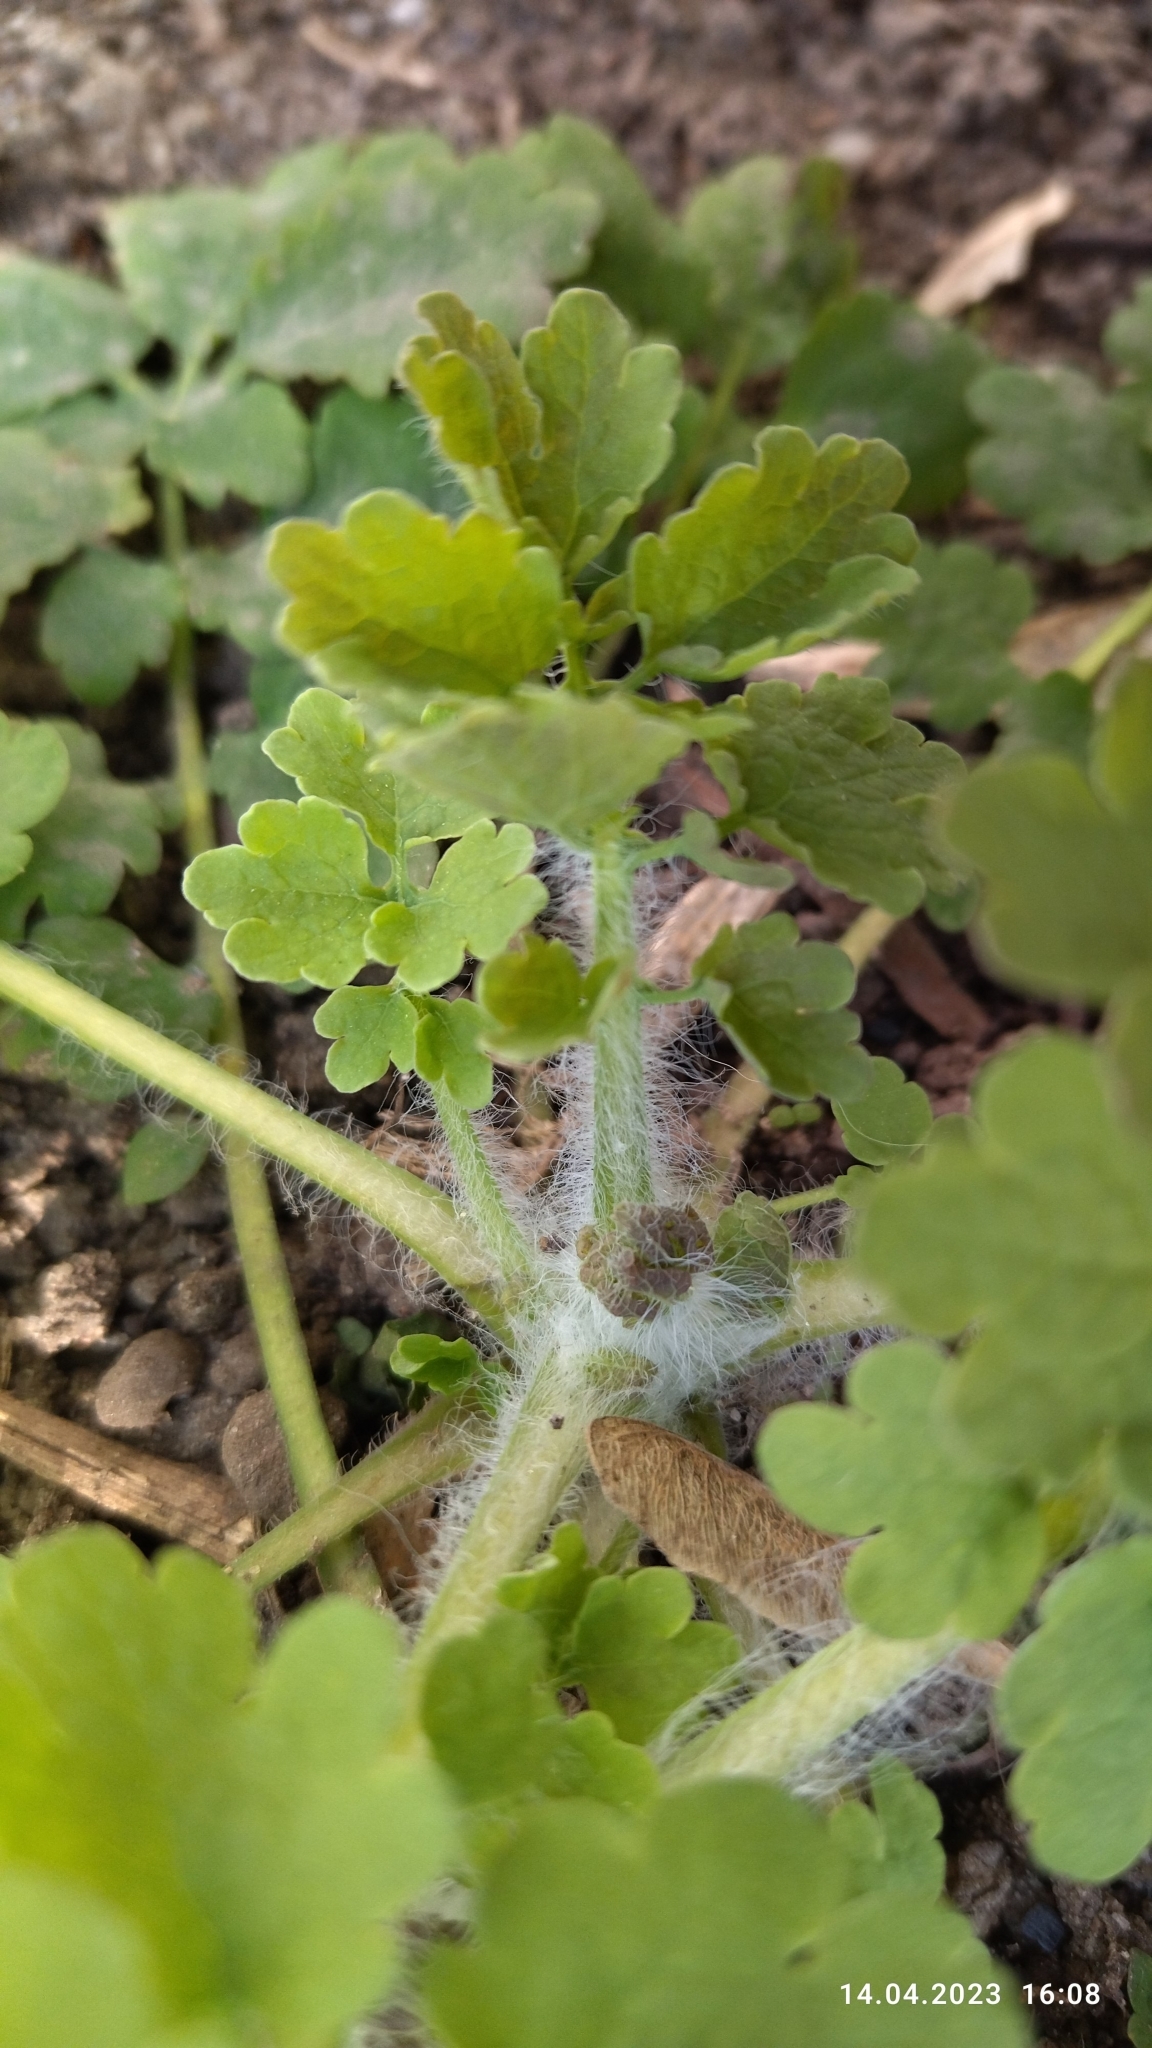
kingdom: Plantae
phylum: Tracheophyta
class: Magnoliopsida
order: Ranunculales
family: Papaveraceae
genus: Chelidonium
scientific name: Chelidonium majus
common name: Greater celandine
